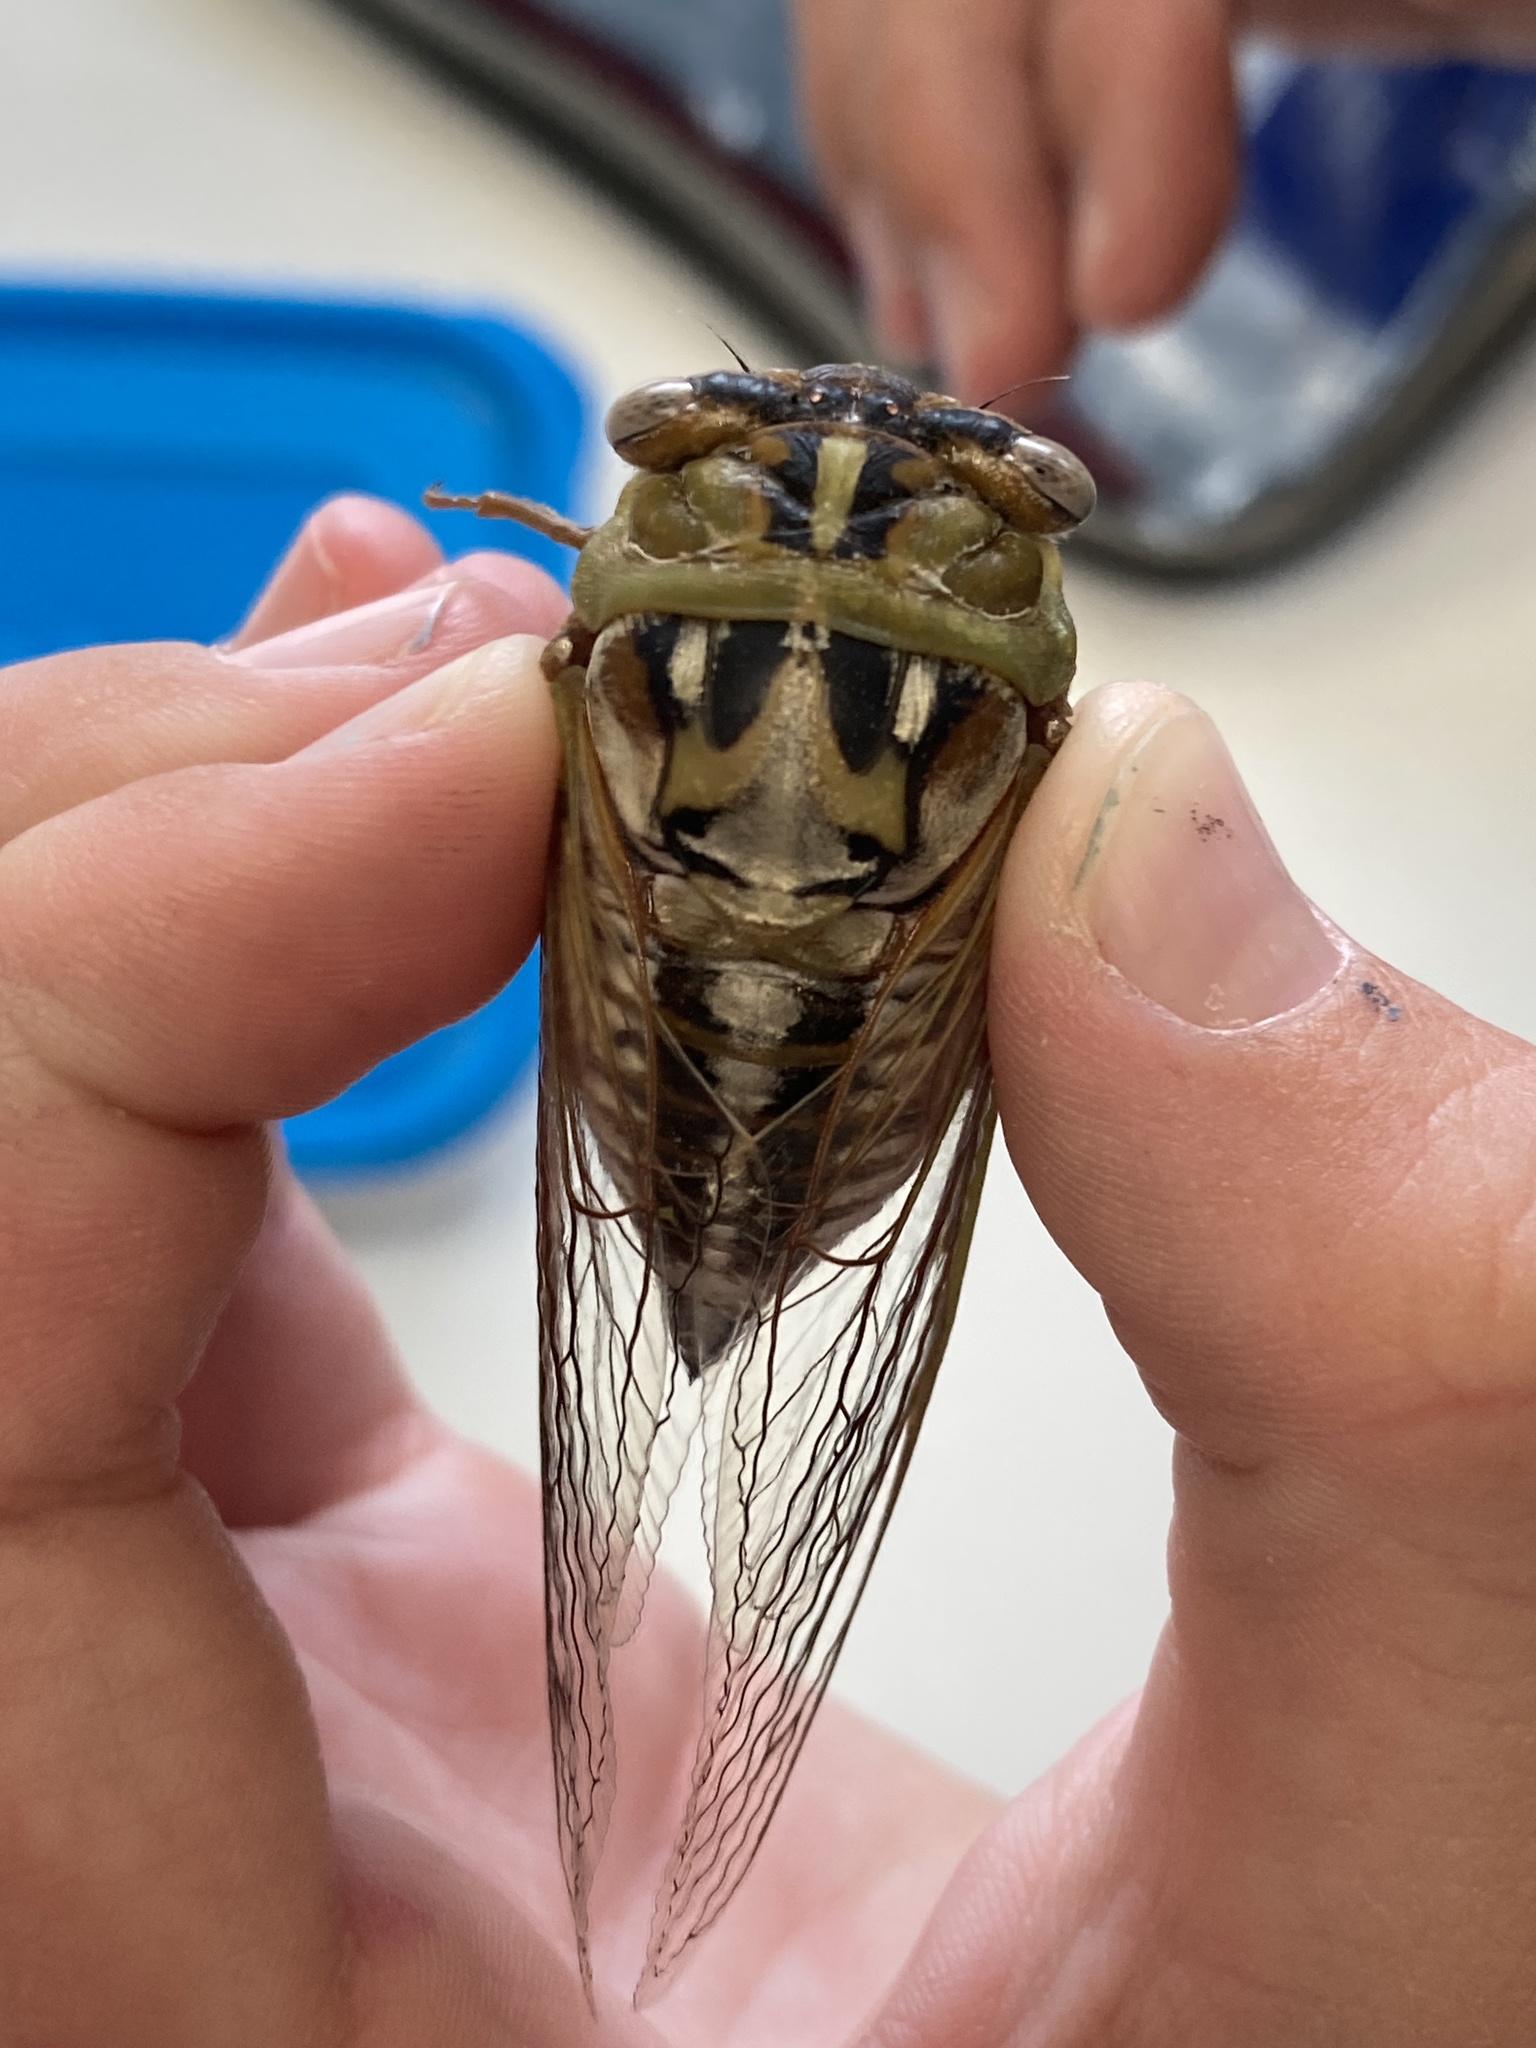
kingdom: Animalia
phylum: Arthropoda
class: Insecta
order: Hemiptera
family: Cicadidae
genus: Megatibicen
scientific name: Megatibicen dealbatus
